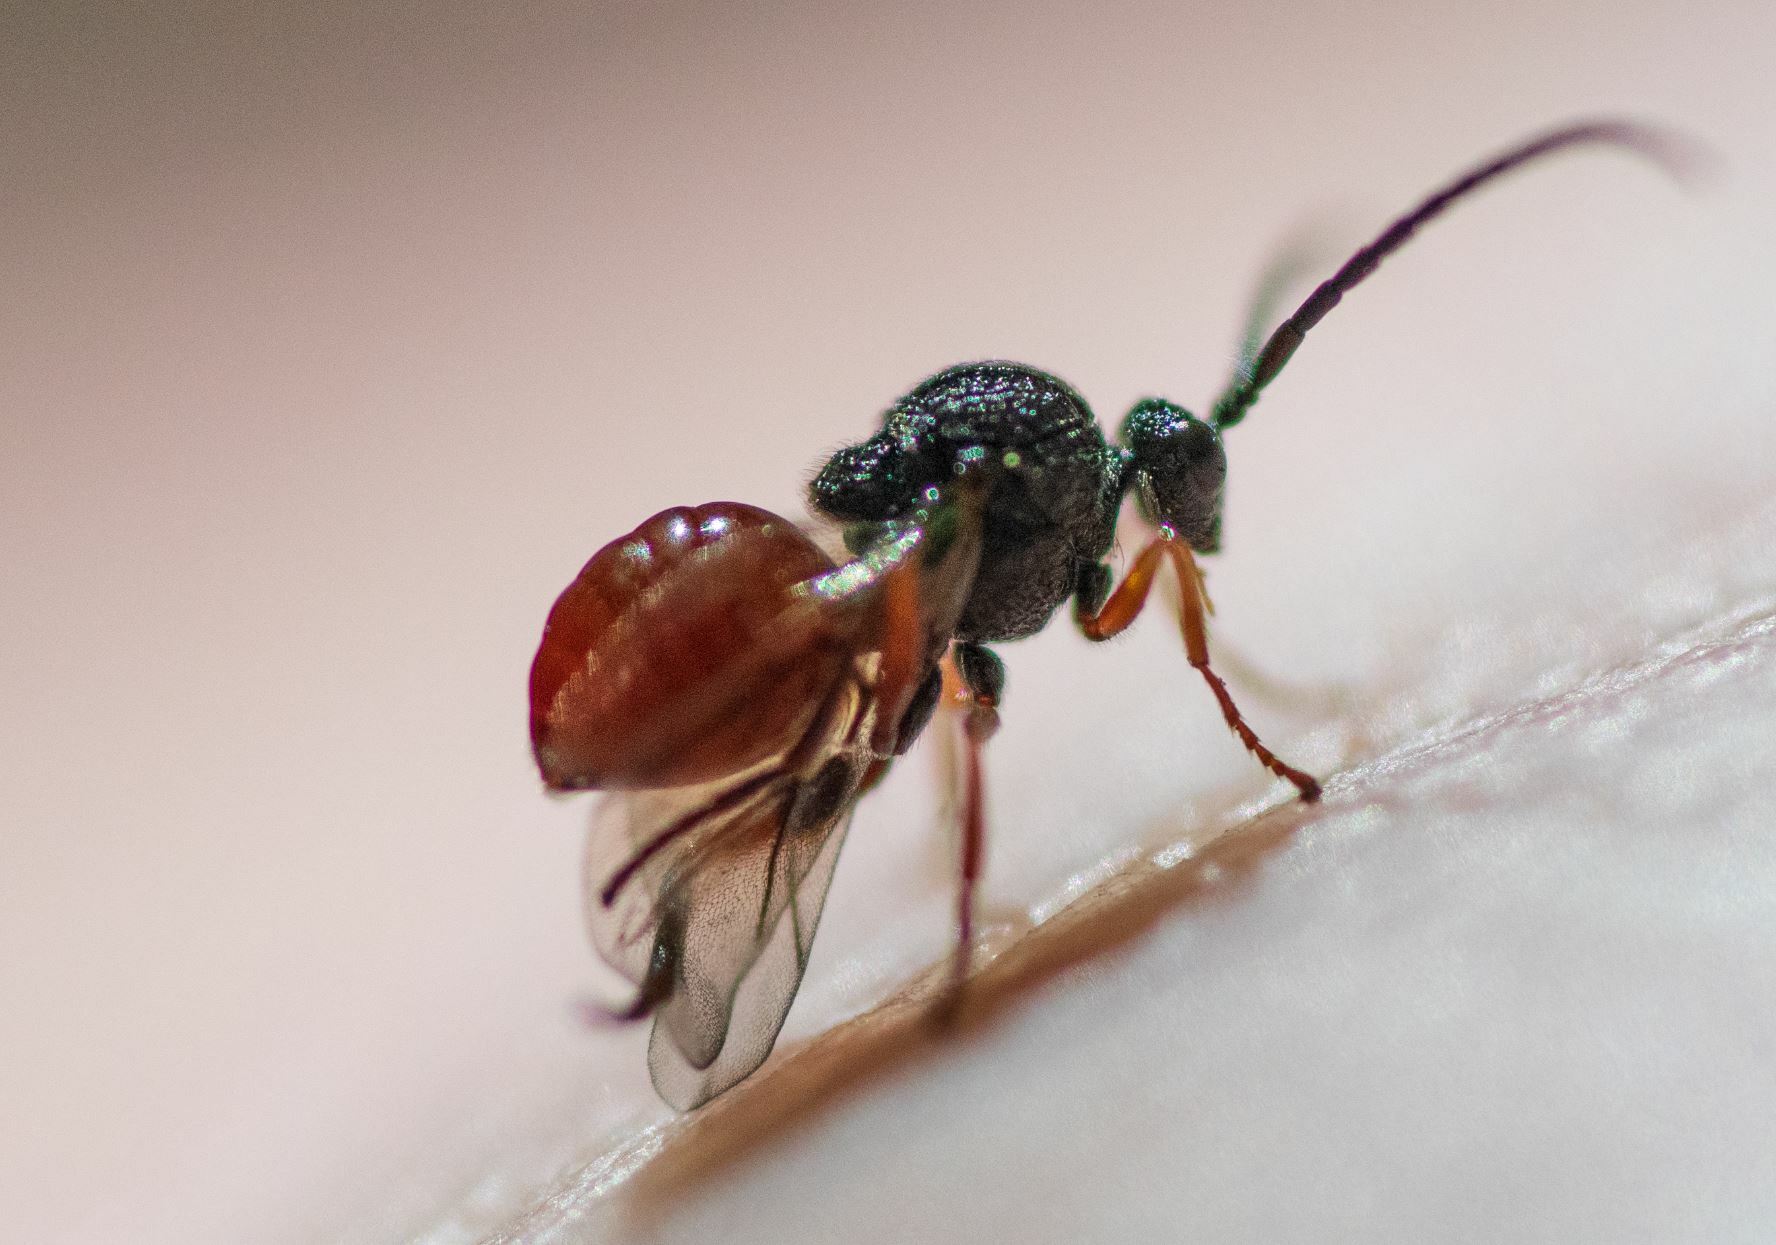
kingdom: Animalia
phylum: Arthropoda
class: Insecta
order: Hymenoptera
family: Cynipidae
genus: Amphibolips
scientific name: Amphibolips
